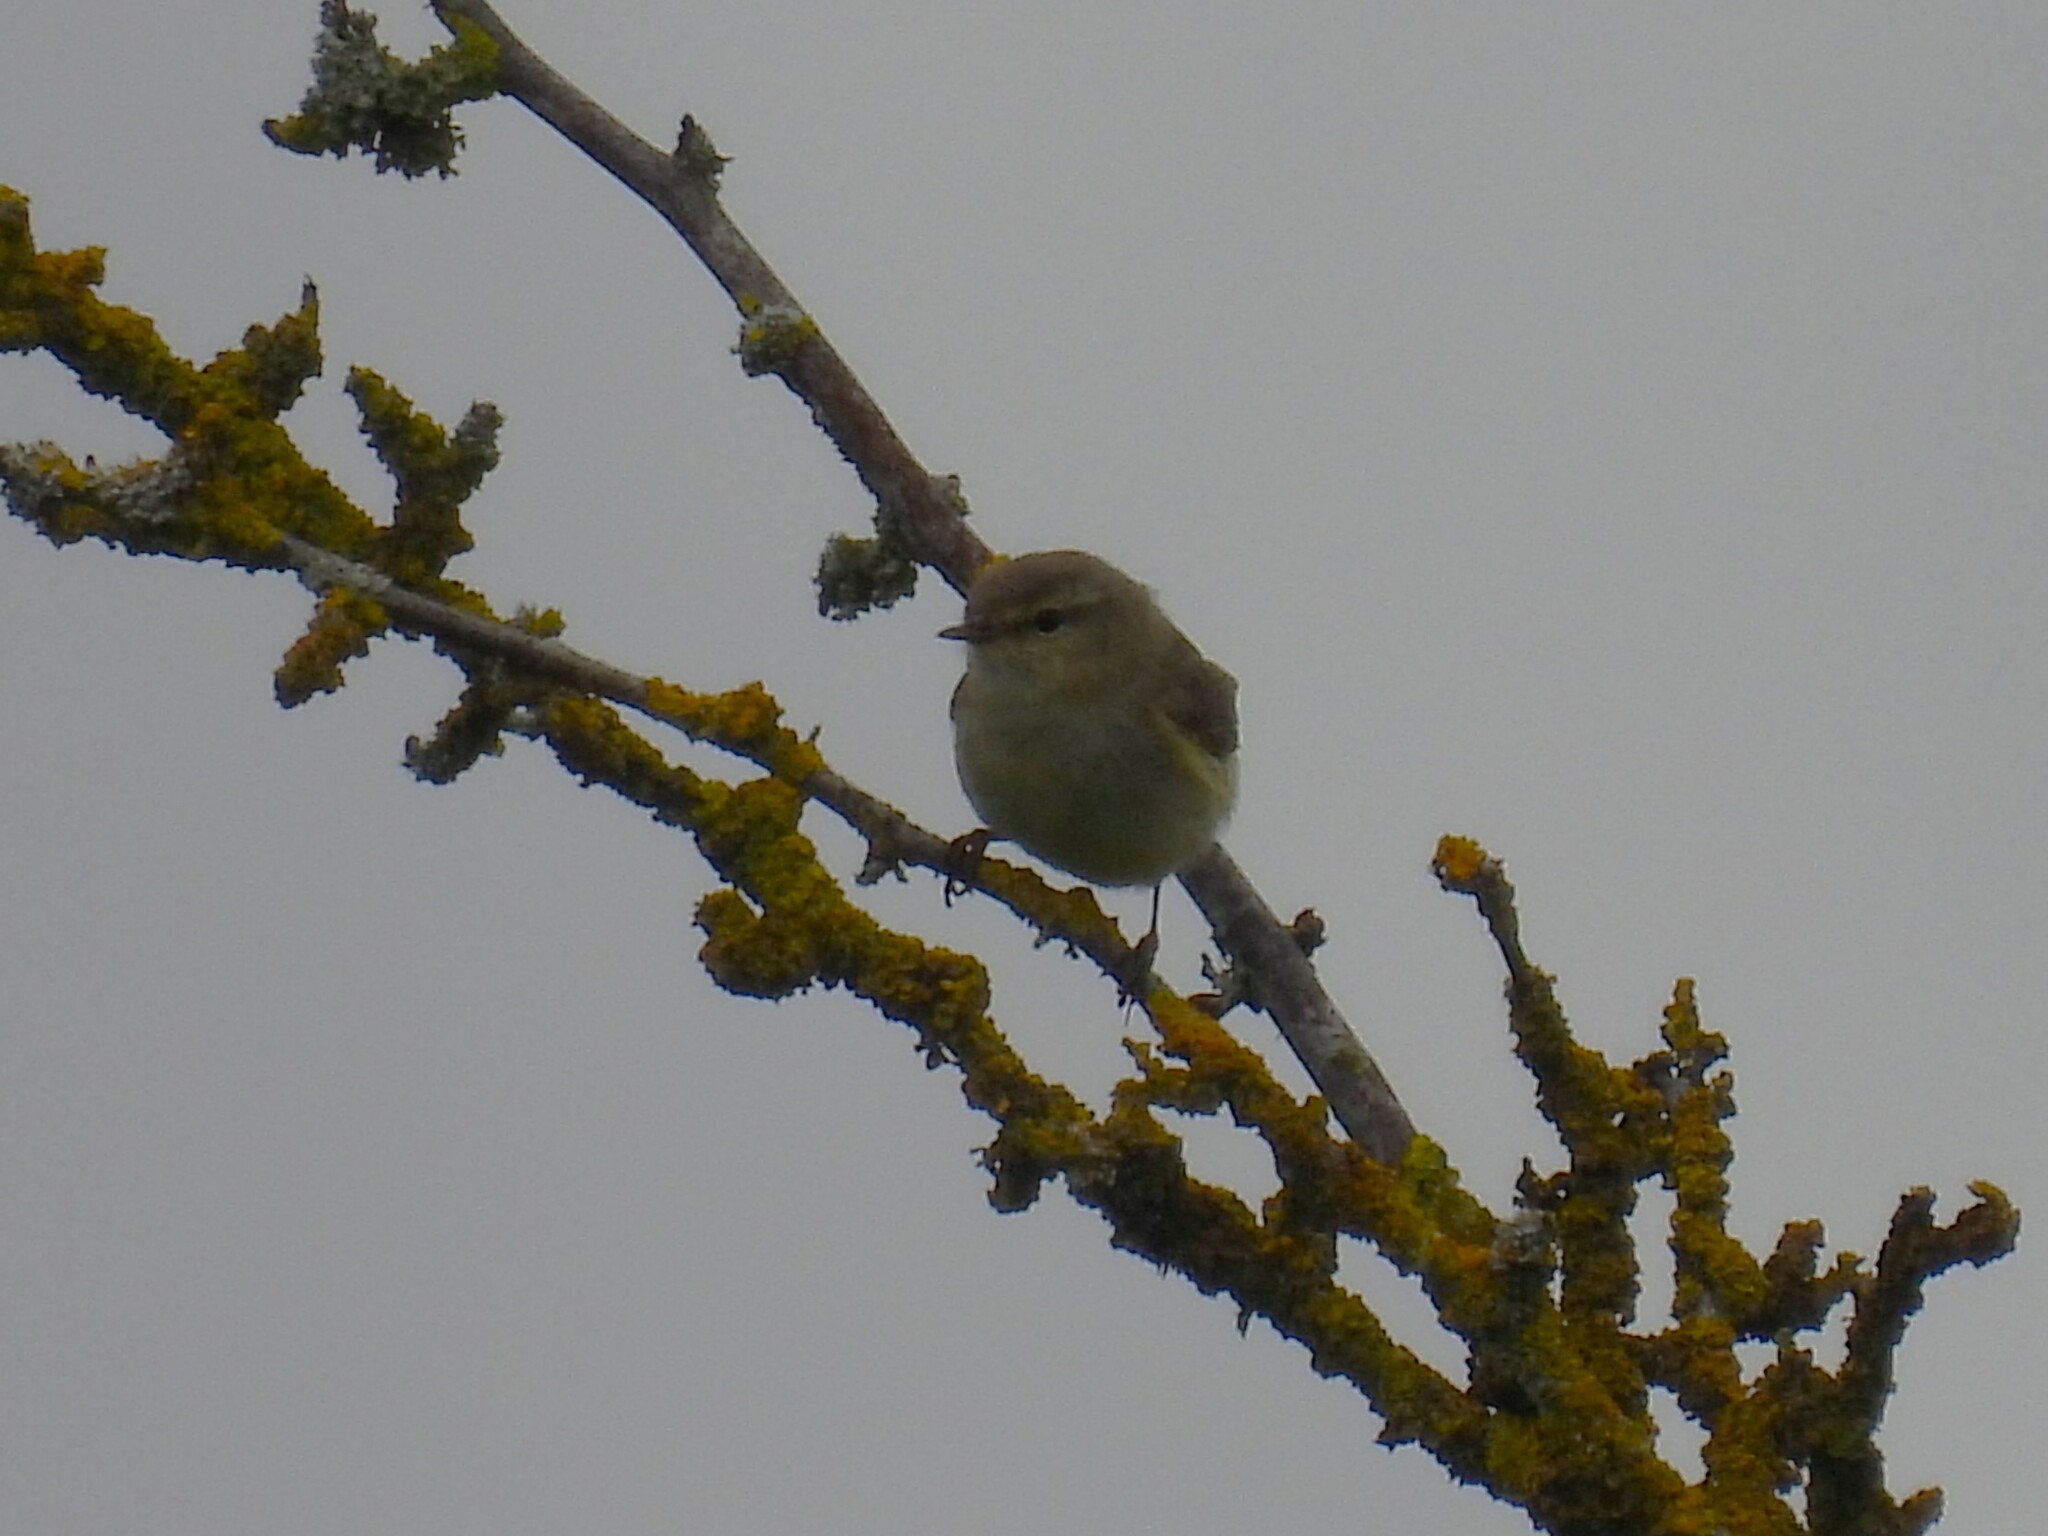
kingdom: Animalia
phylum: Chordata
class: Aves
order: Passeriformes
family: Phylloscopidae
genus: Phylloscopus
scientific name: Phylloscopus collybita
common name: Common chiffchaff
